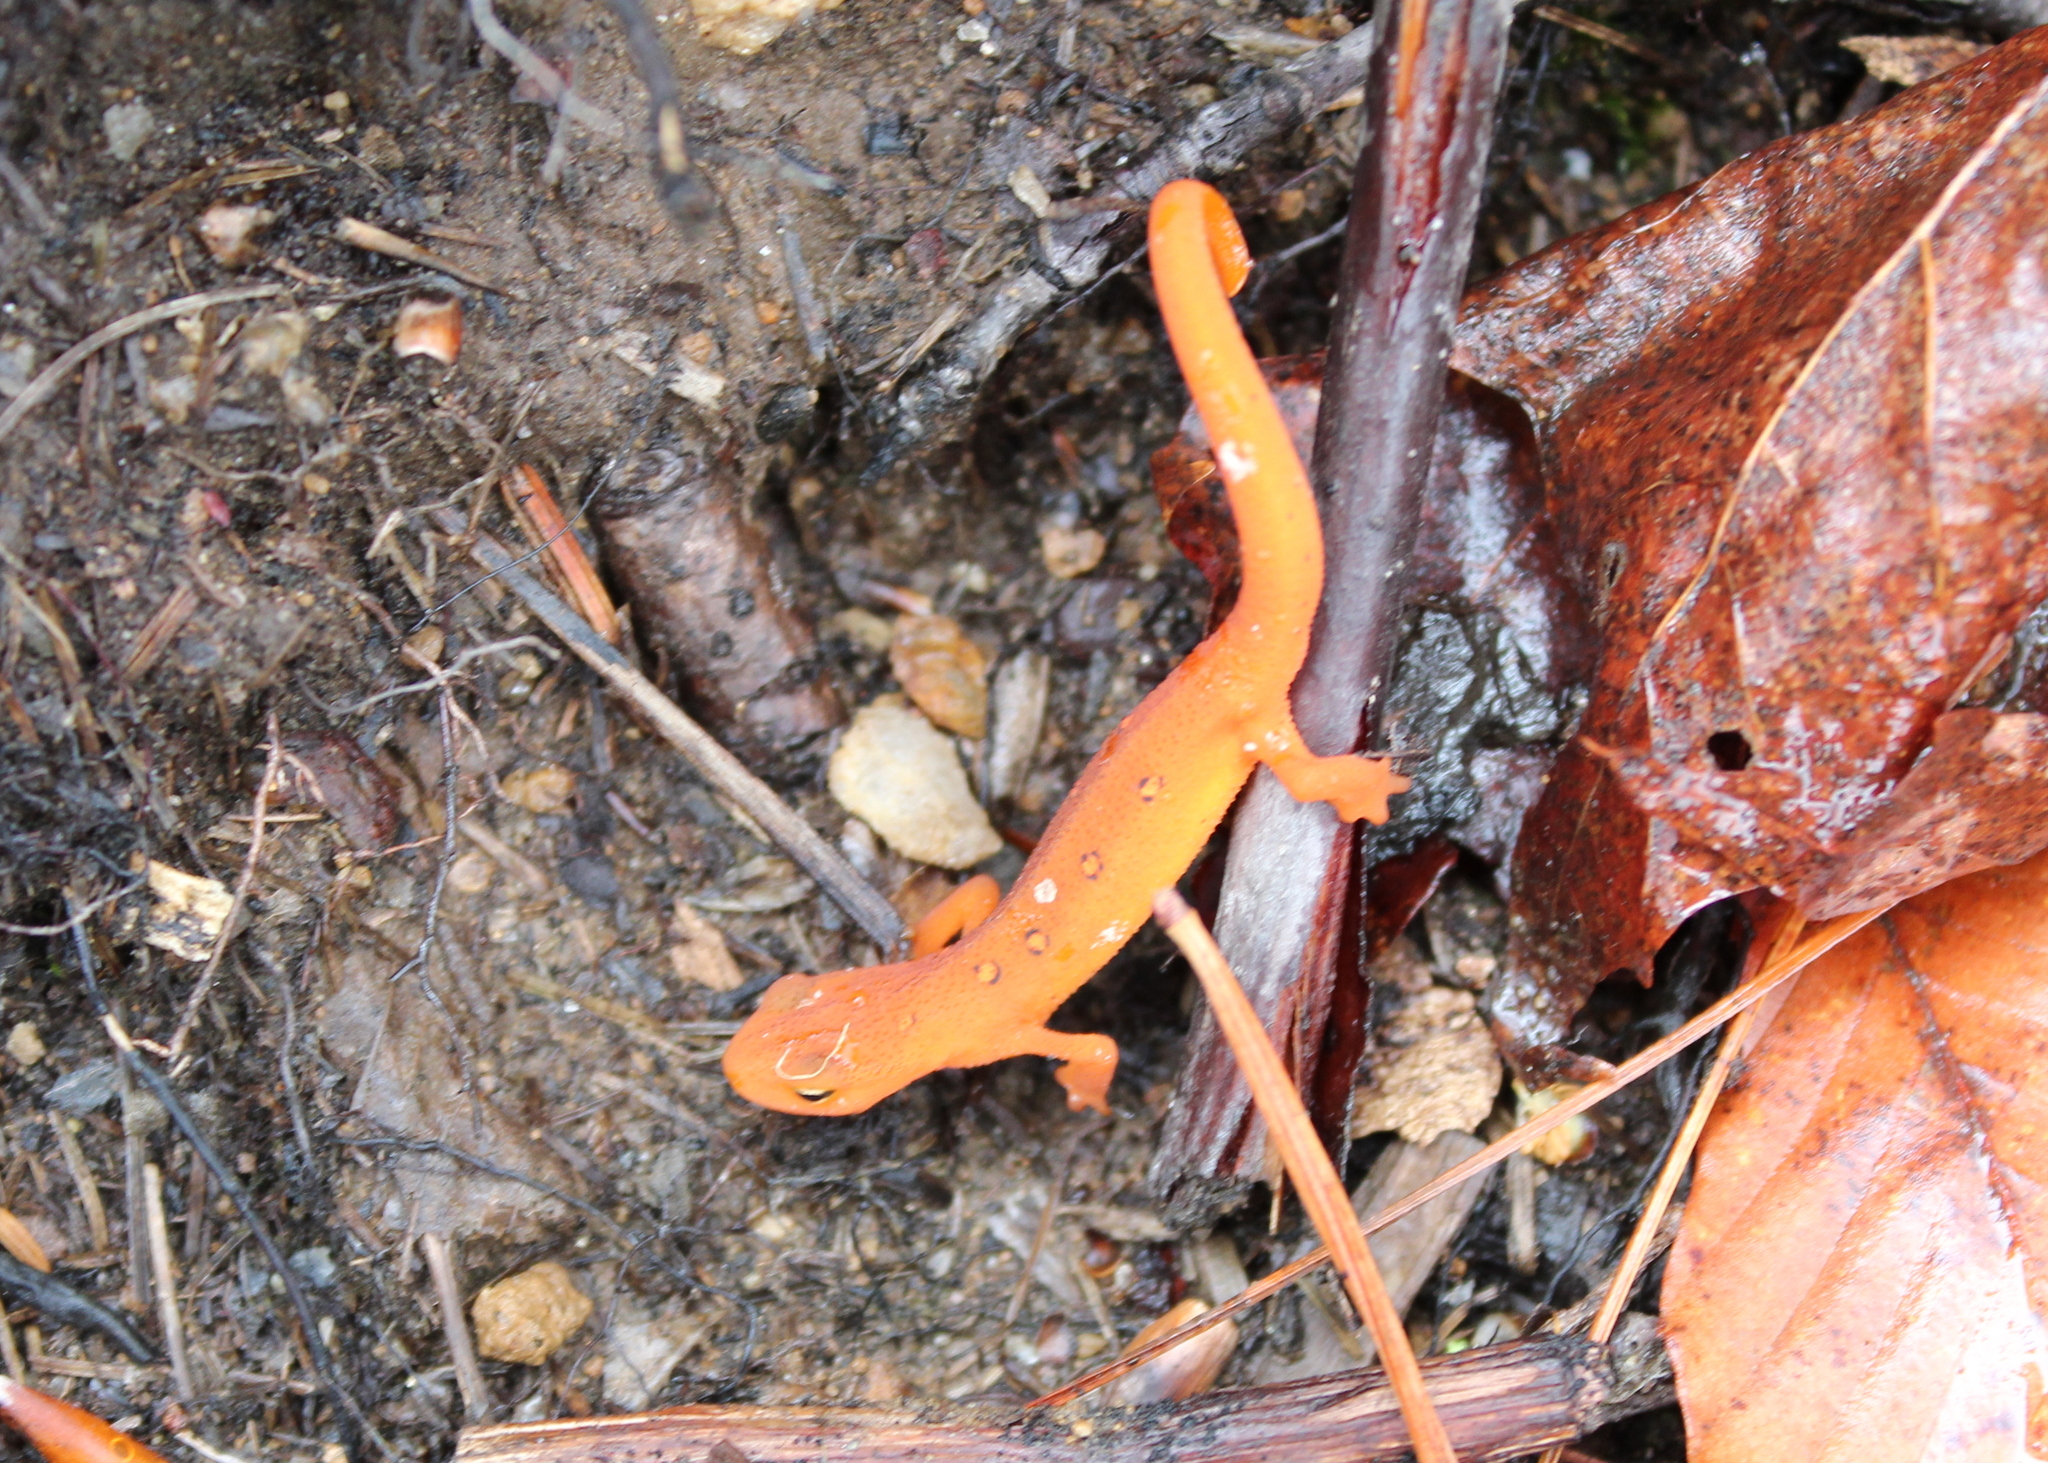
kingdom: Animalia
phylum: Chordata
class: Amphibia
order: Caudata
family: Salamandridae
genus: Notophthalmus
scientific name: Notophthalmus viridescens
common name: Eastern newt
